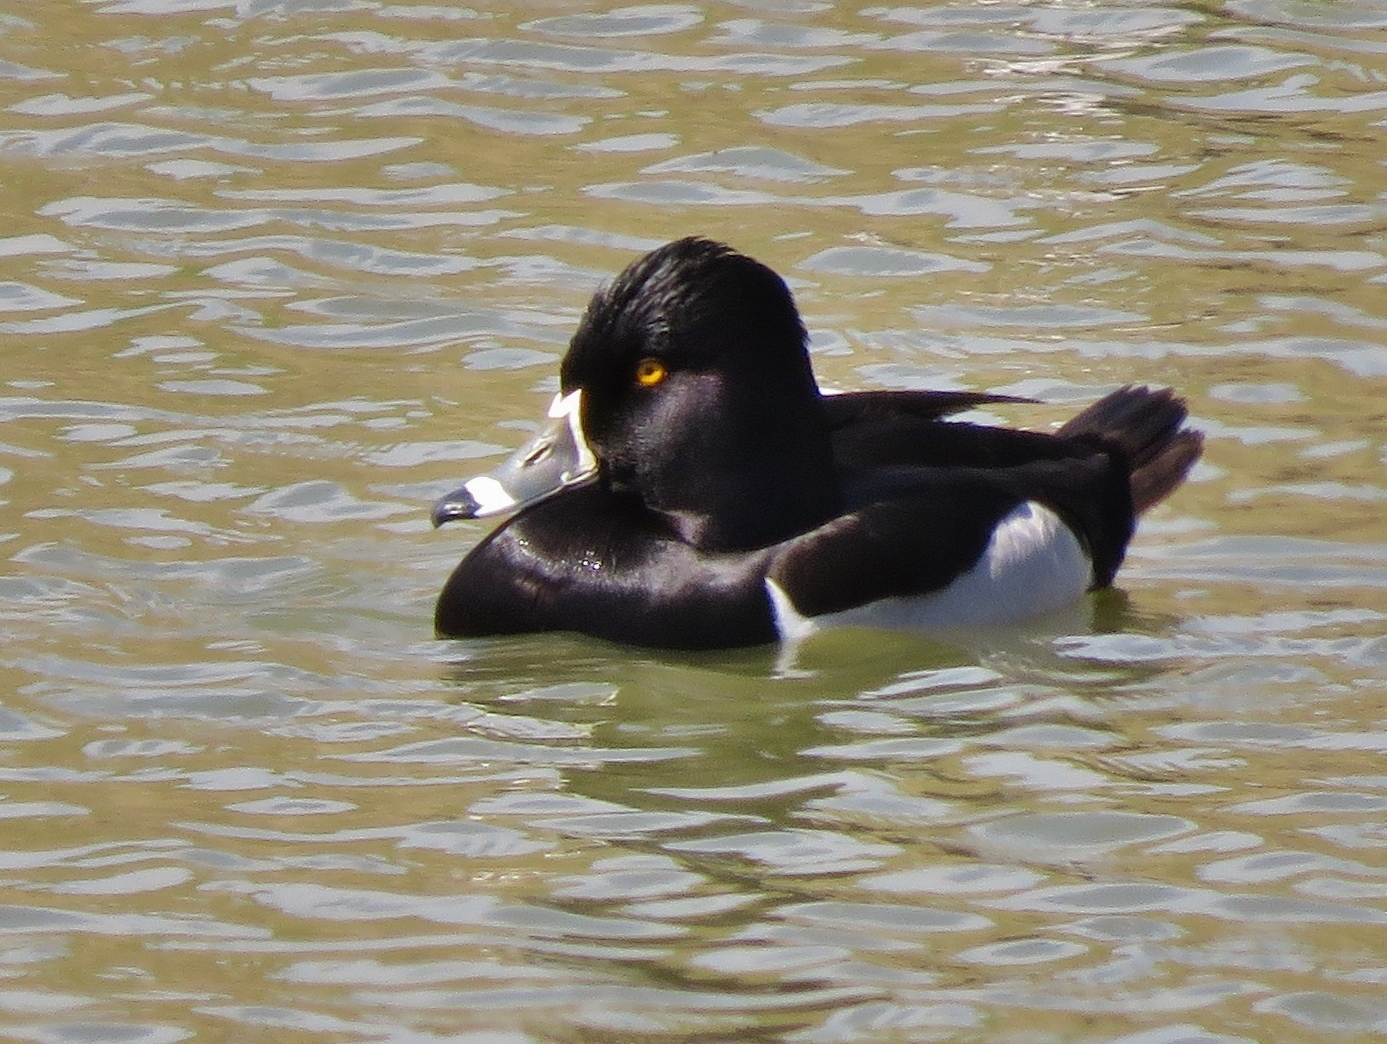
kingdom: Animalia
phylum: Chordata
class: Aves
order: Anseriformes
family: Anatidae
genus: Aythya
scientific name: Aythya collaris
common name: Ring-necked duck
